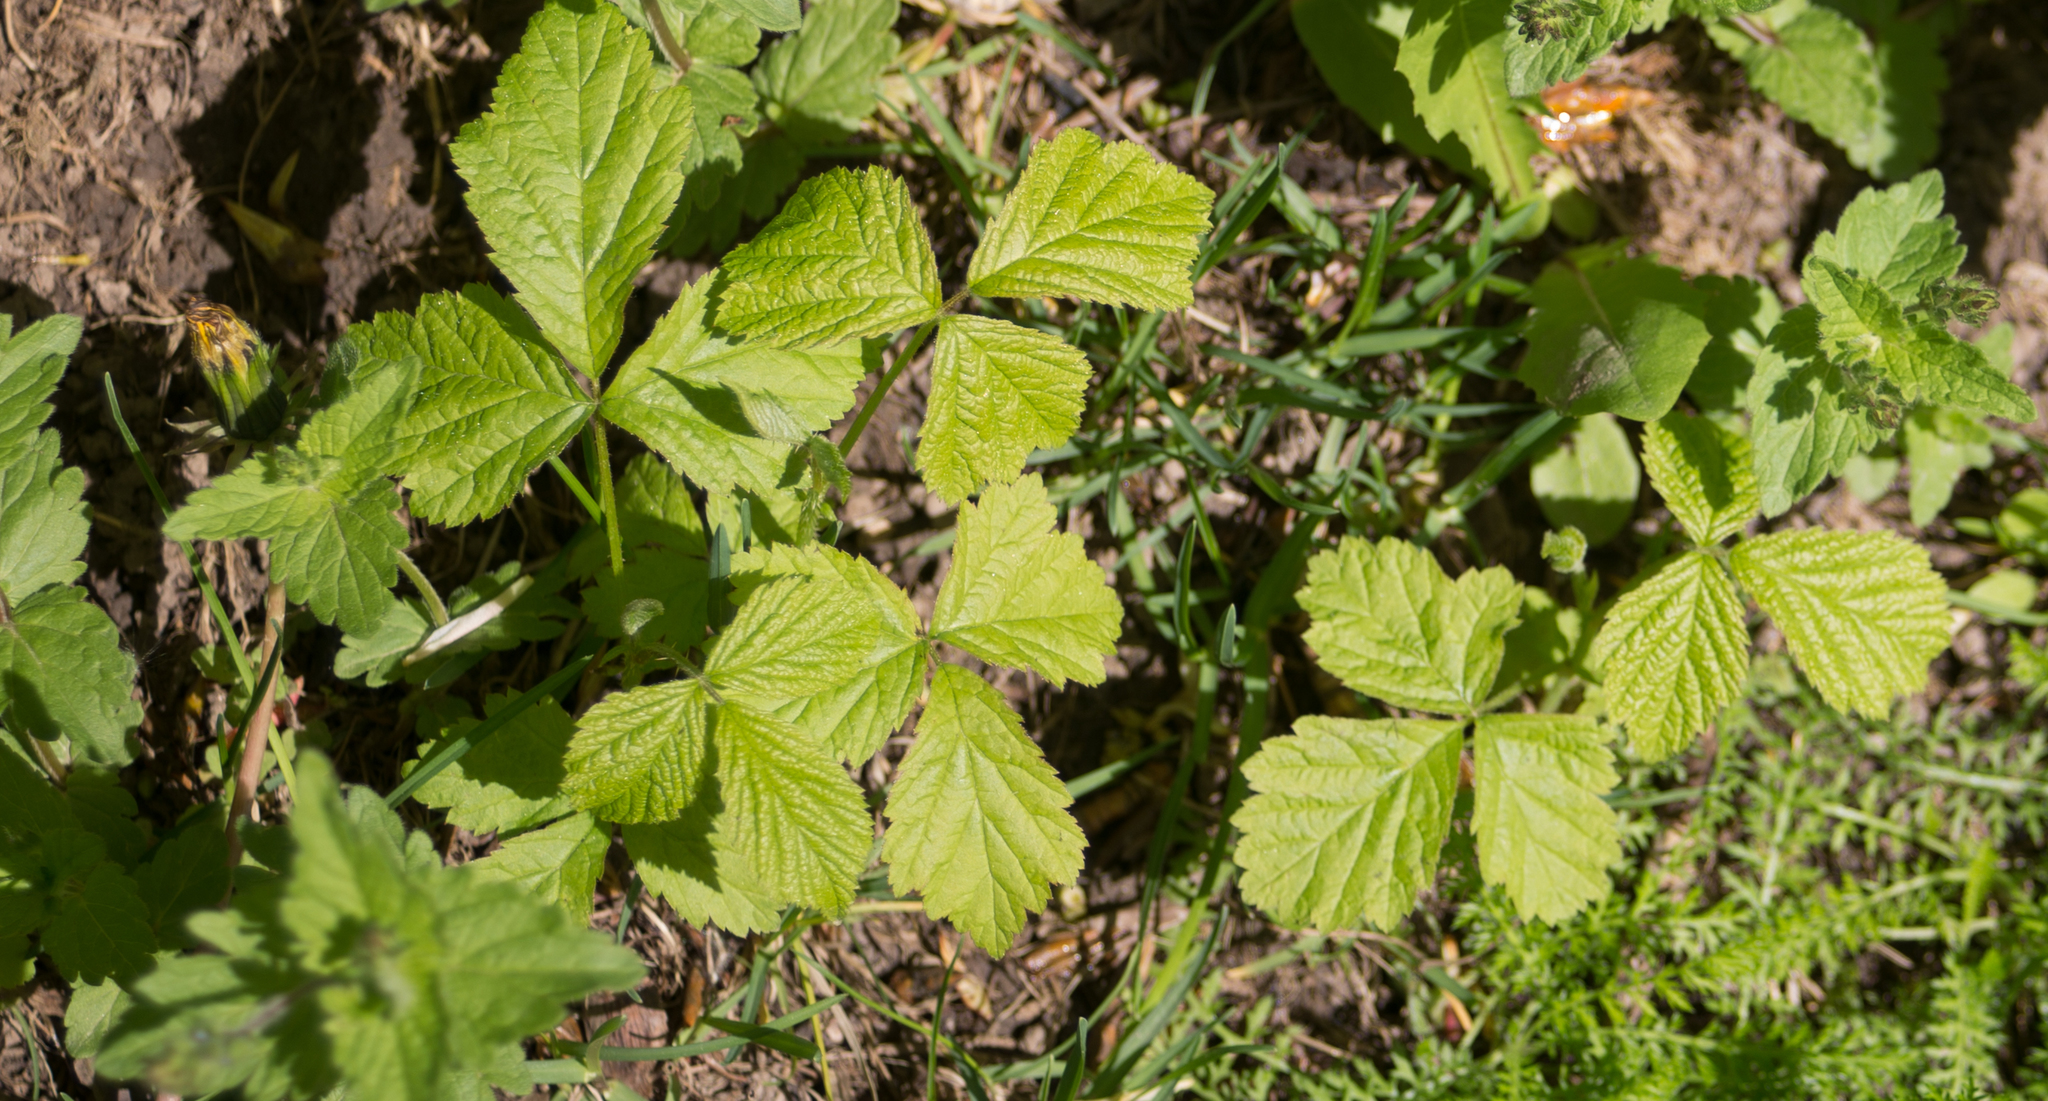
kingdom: Plantae
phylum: Tracheophyta
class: Magnoliopsida
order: Rosales
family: Rosaceae
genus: Rubus
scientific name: Rubus caesius
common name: Dewberry
